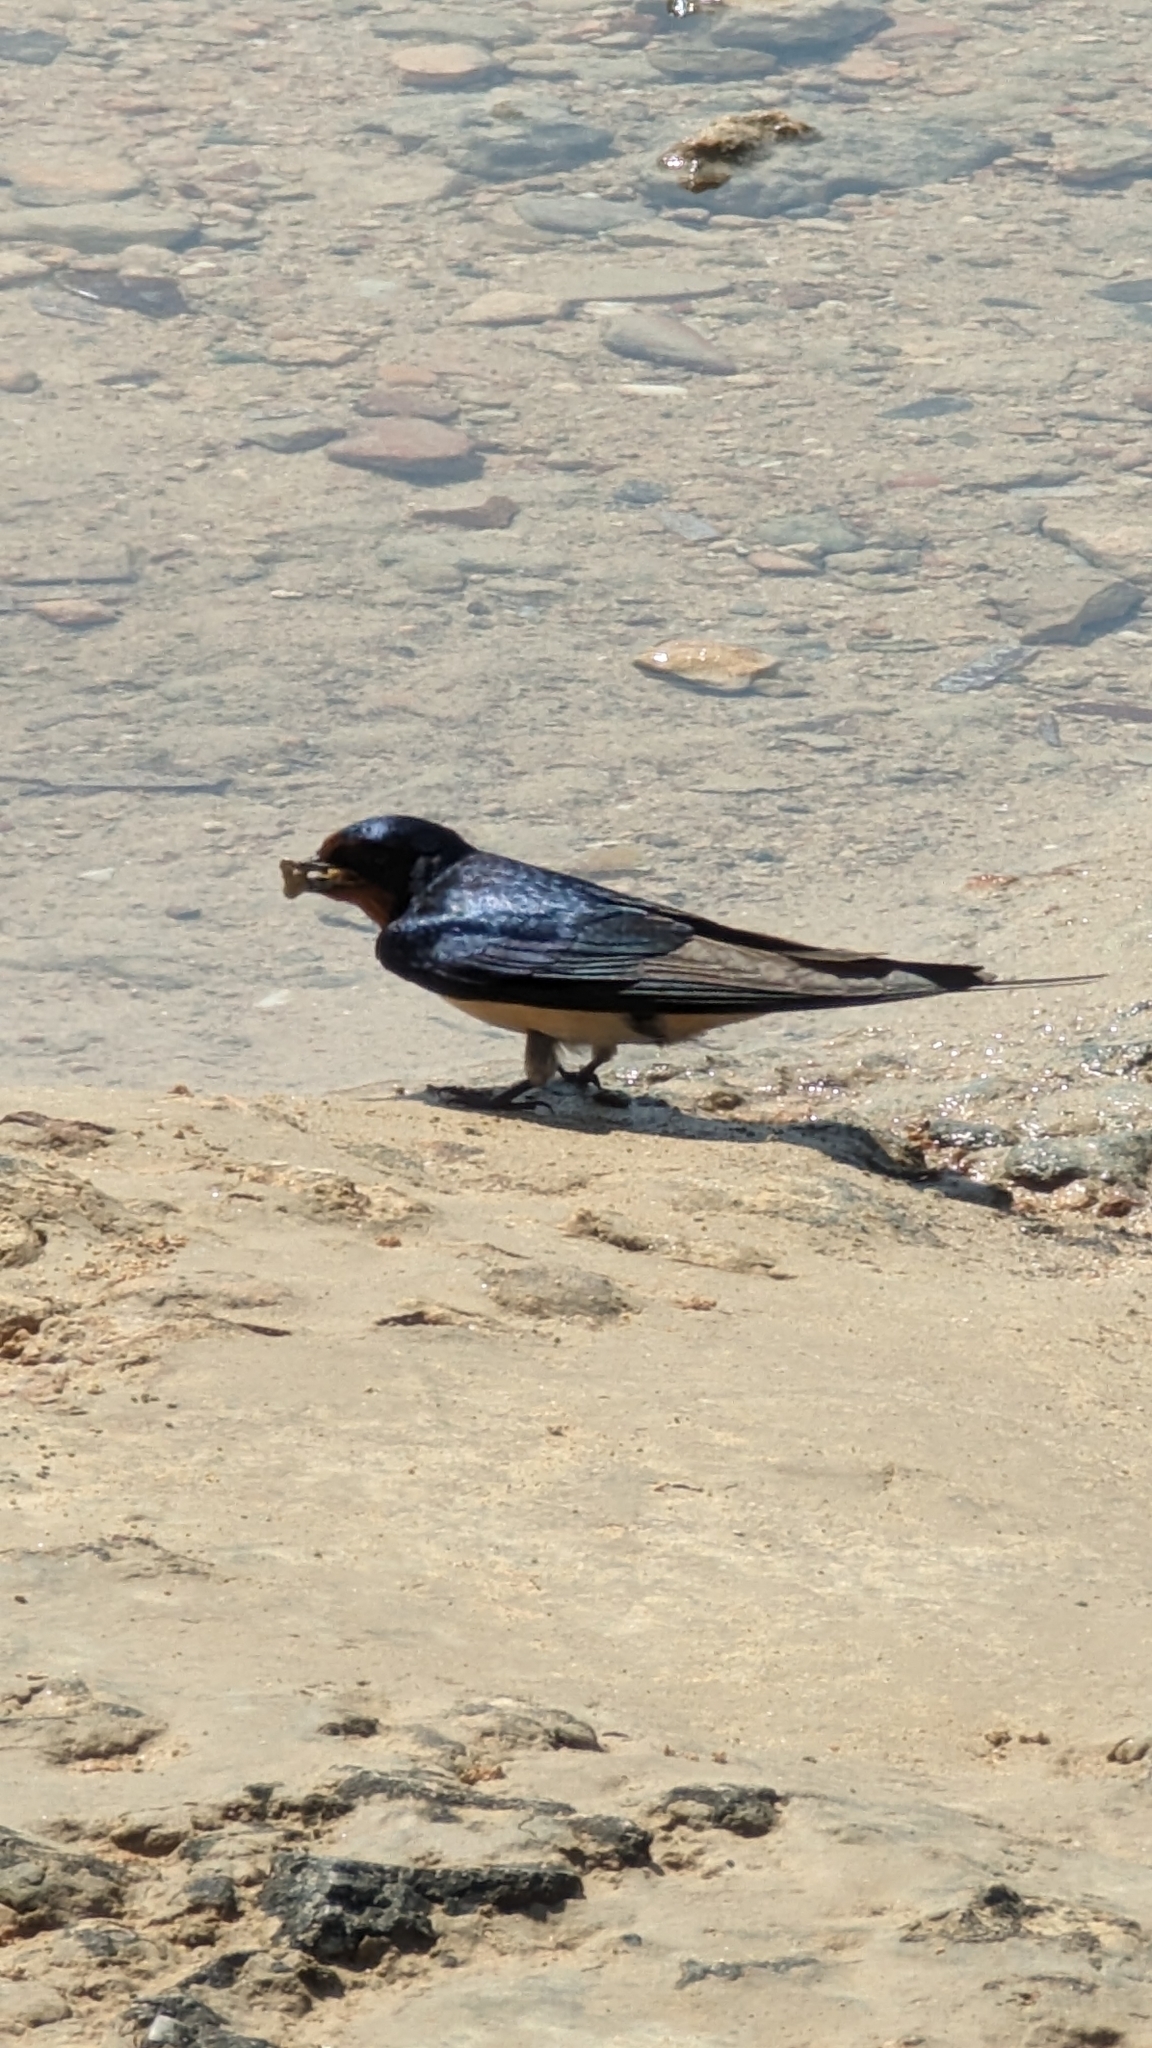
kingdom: Animalia
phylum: Chordata
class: Aves
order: Passeriformes
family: Hirundinidae
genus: Hirundo
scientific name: Hirundo rustica
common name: Barn swallow
